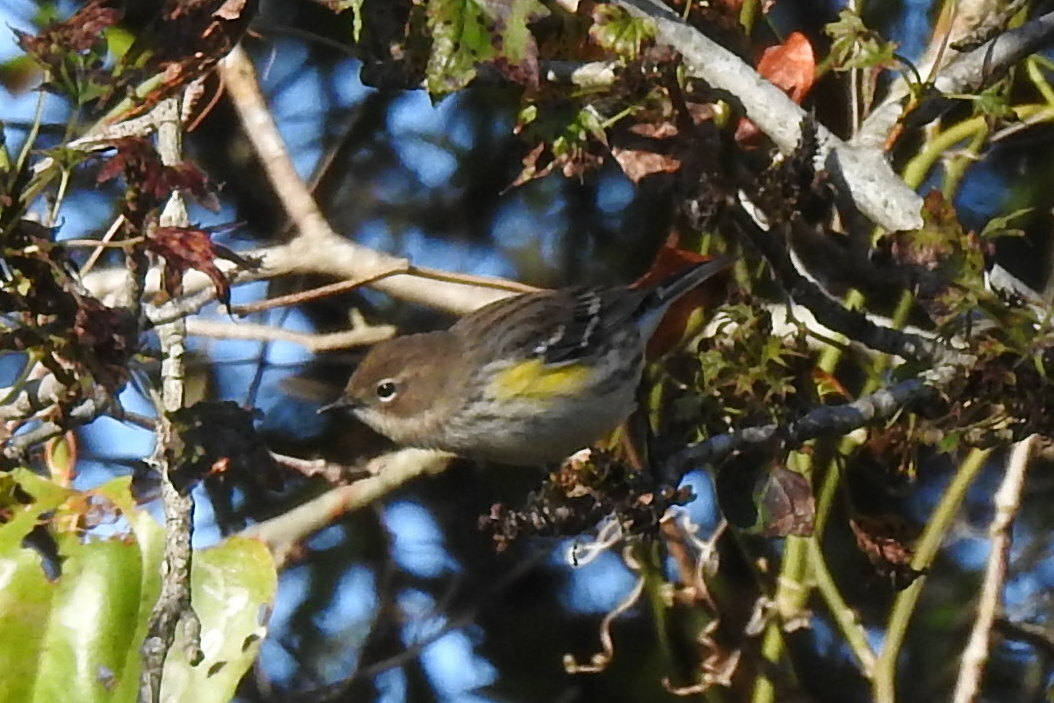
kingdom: Animalia
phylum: Chordata
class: Aves
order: Passeriformes
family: Parulidae
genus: Setophaga
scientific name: Setophaga coronata
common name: Myrtle warbler
